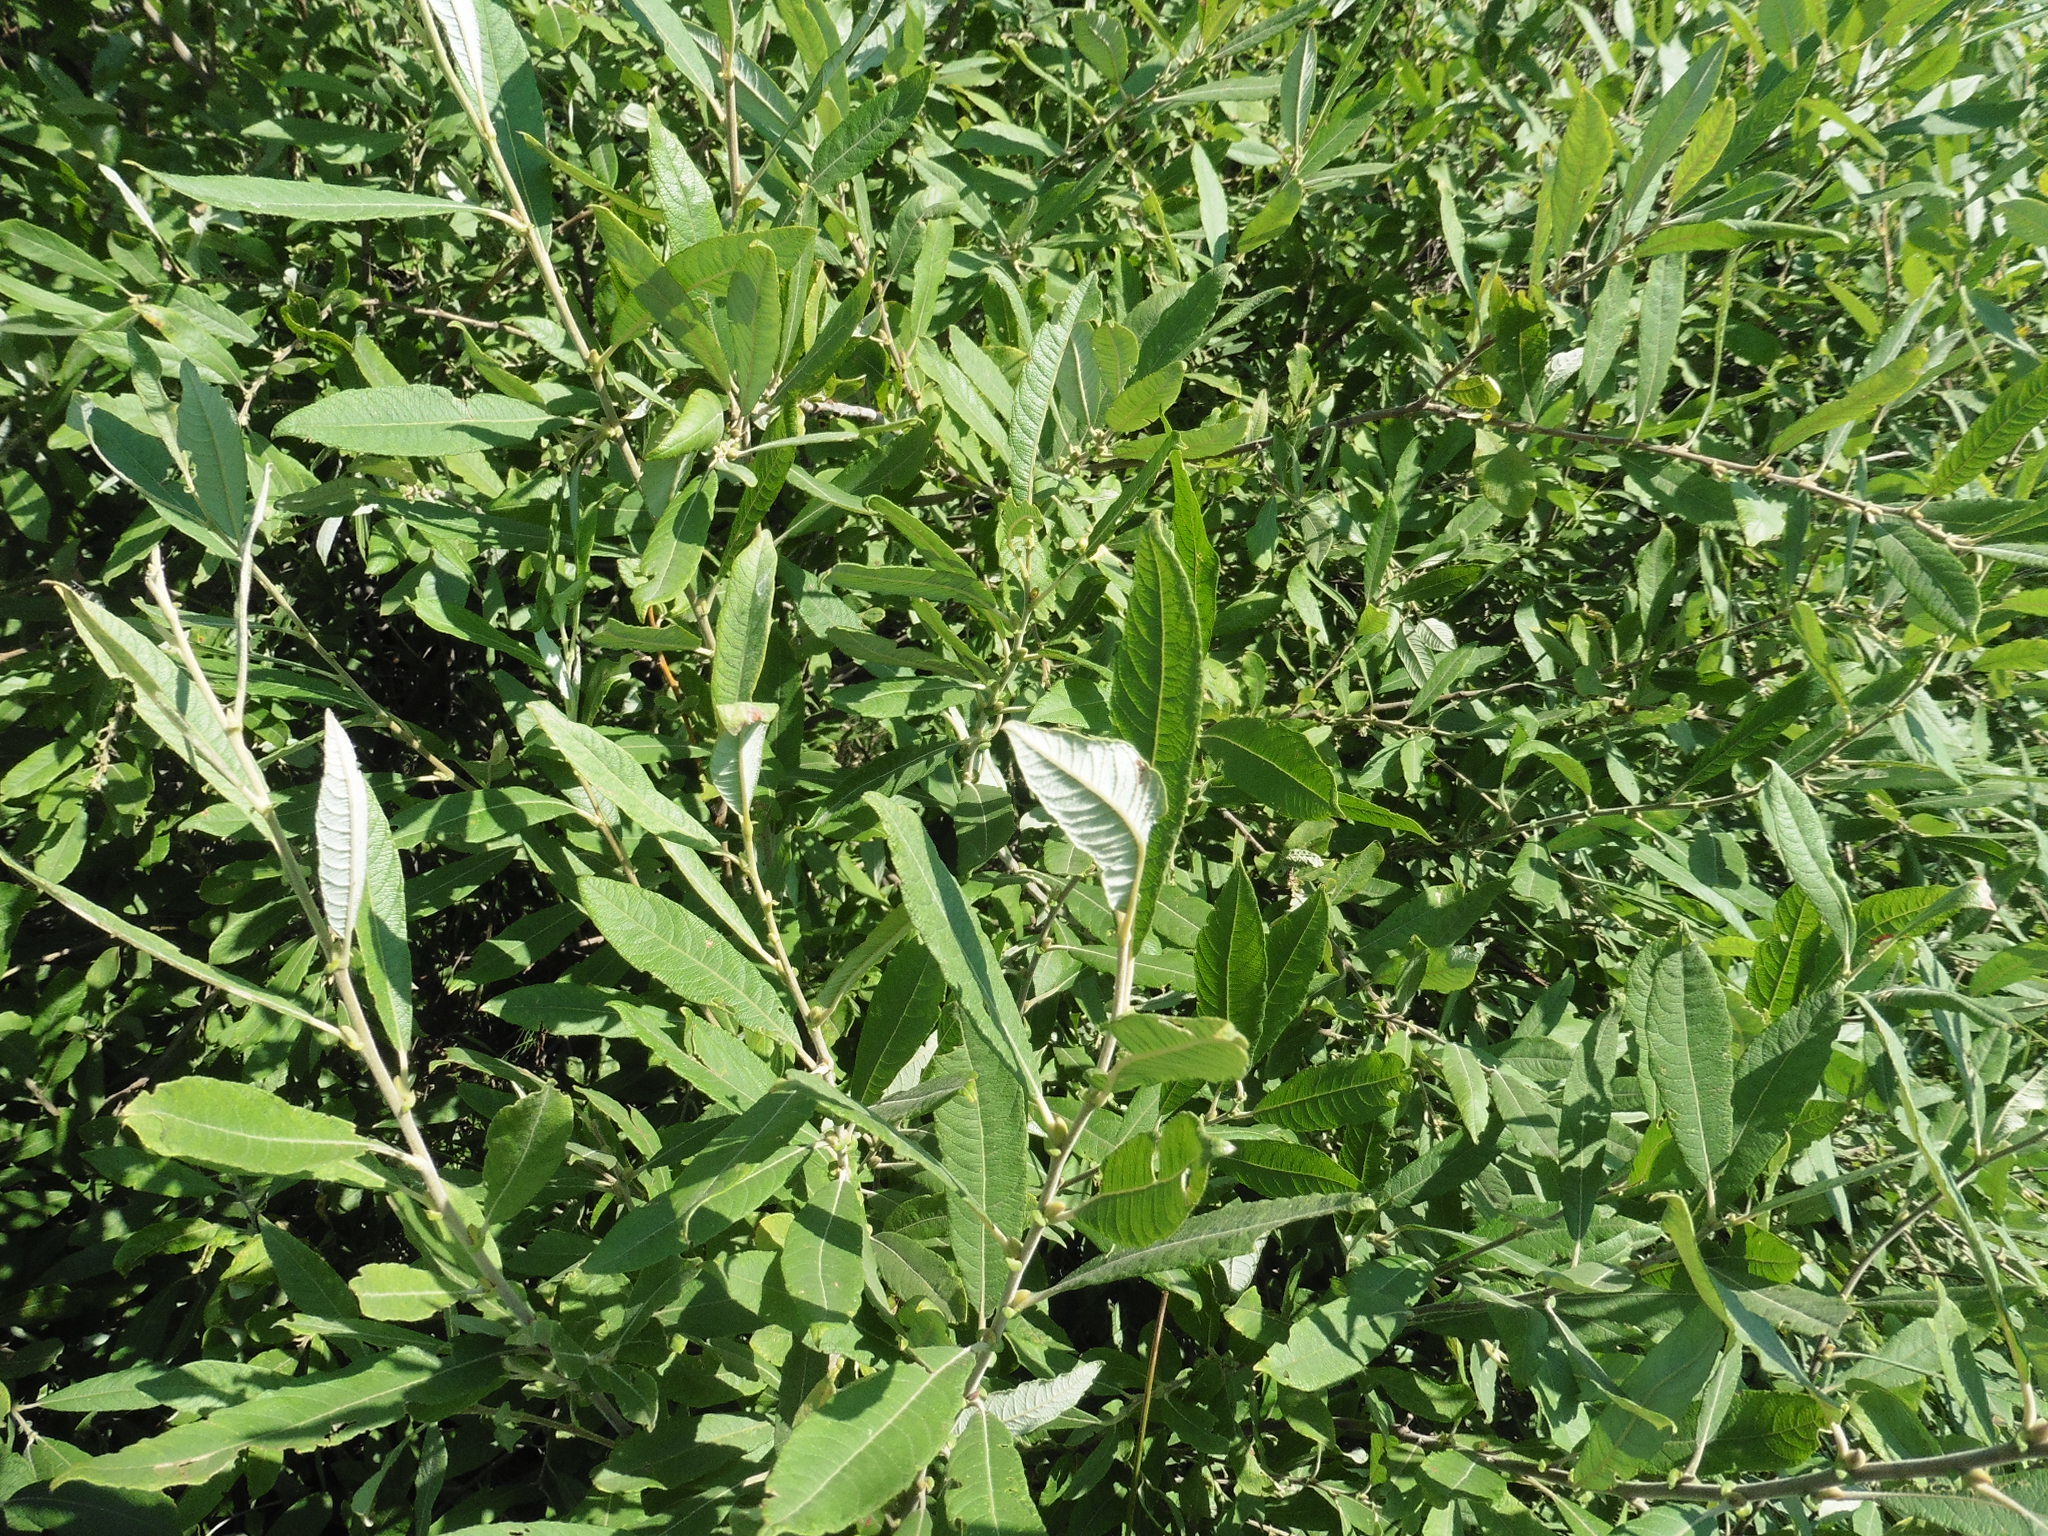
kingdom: Plantae
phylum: Tracheophyta
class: Magnoliopsida
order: Malpighiales
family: Salicaceae
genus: Salix
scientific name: Salix cinerea
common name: Common sallow
